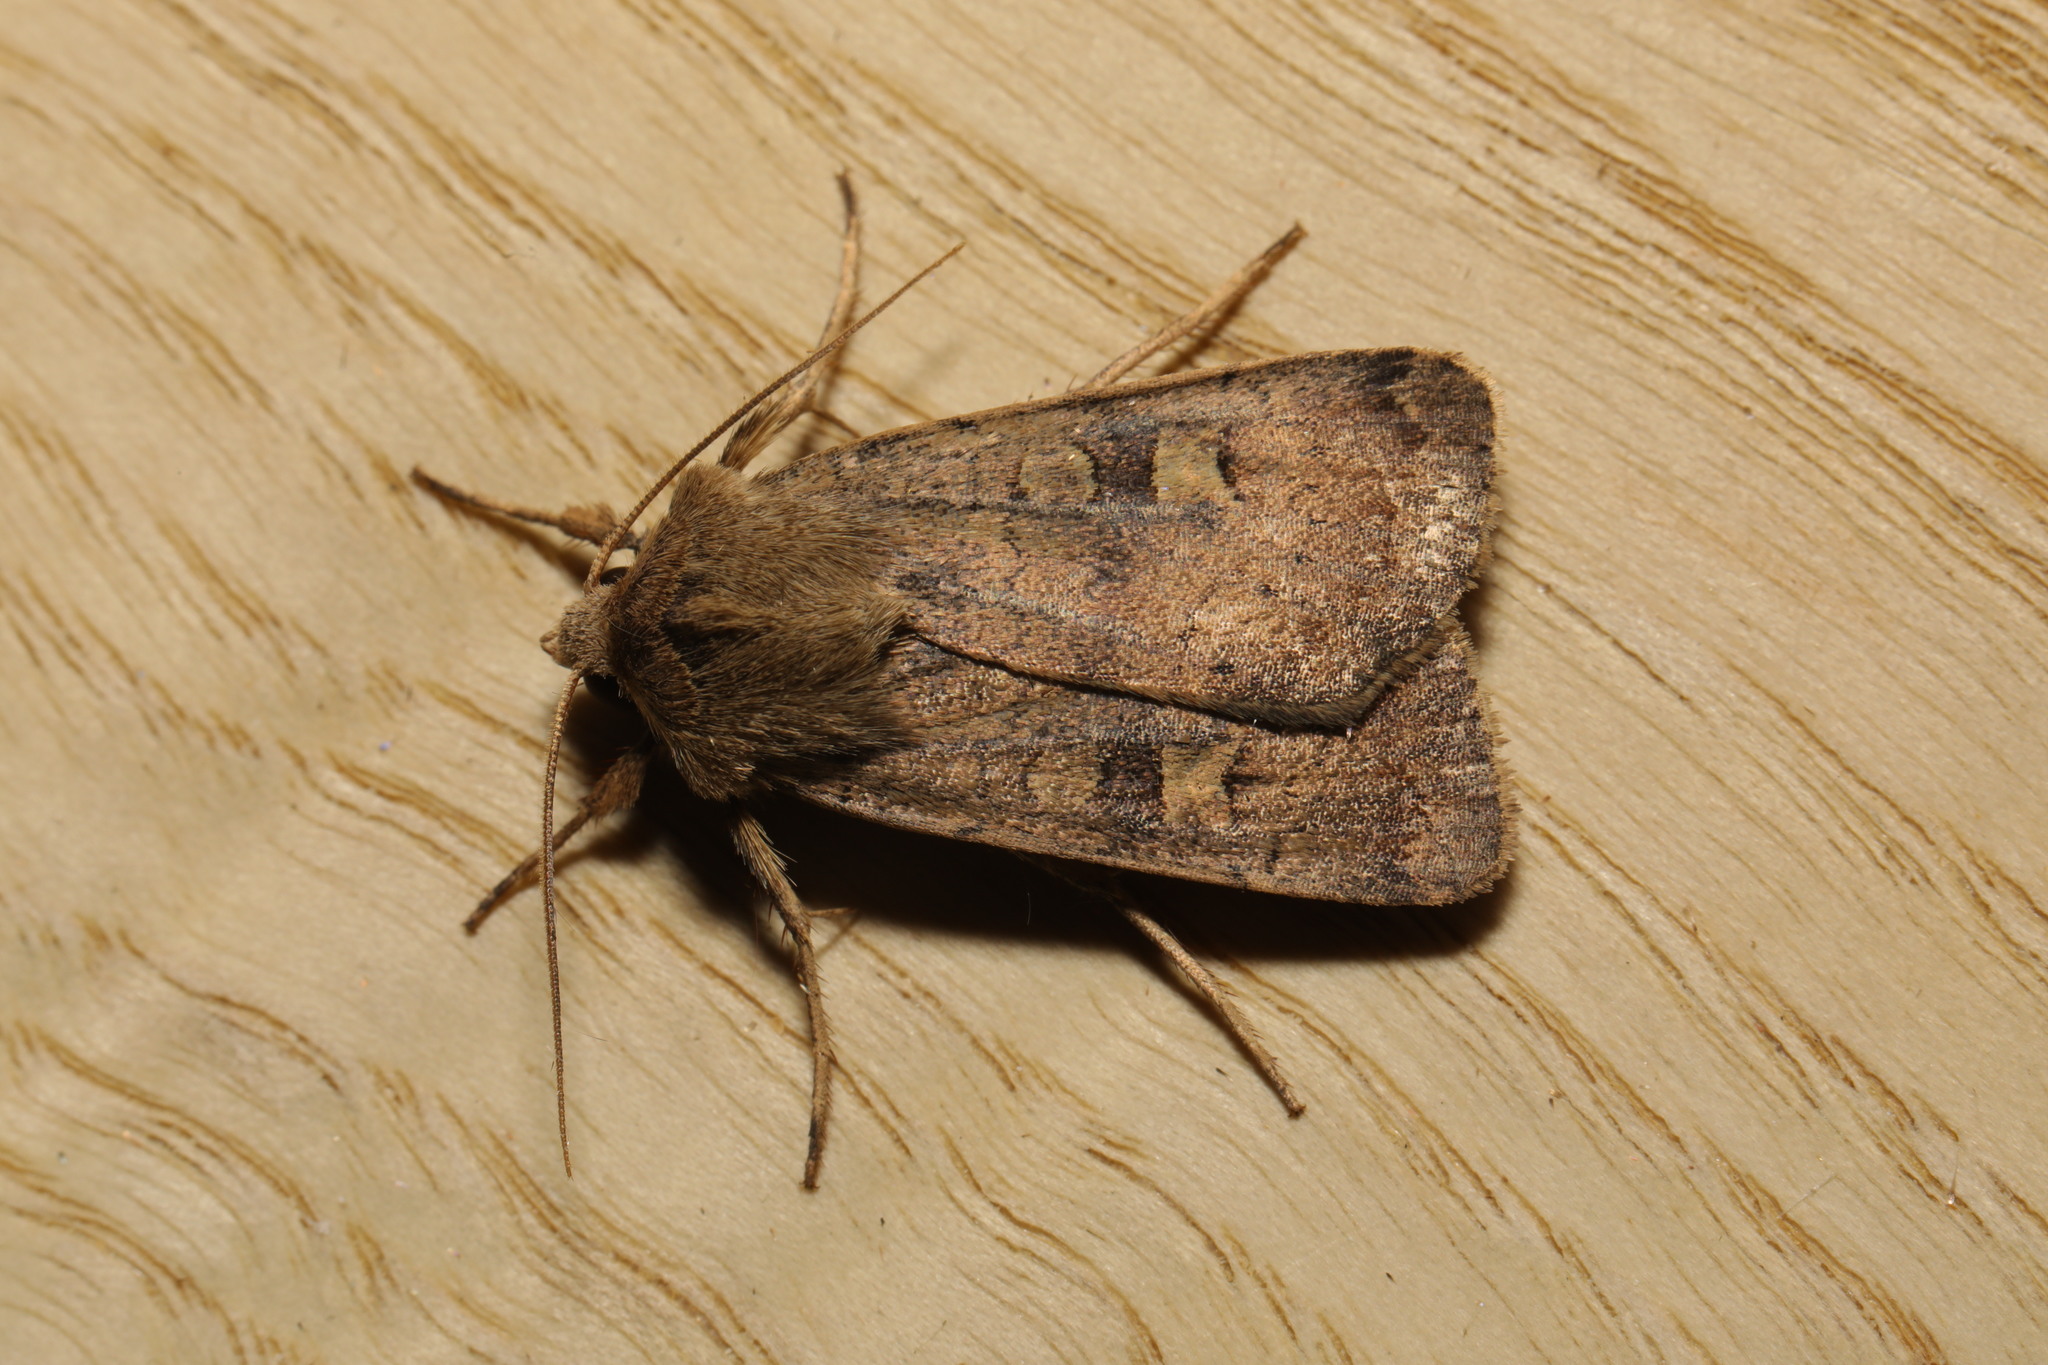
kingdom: Animalia
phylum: Arthropoda
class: Insecta
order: Lepidoptera
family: Noctuidae
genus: Xestia
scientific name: Xestia xanthographa
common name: Square-spot rustic
